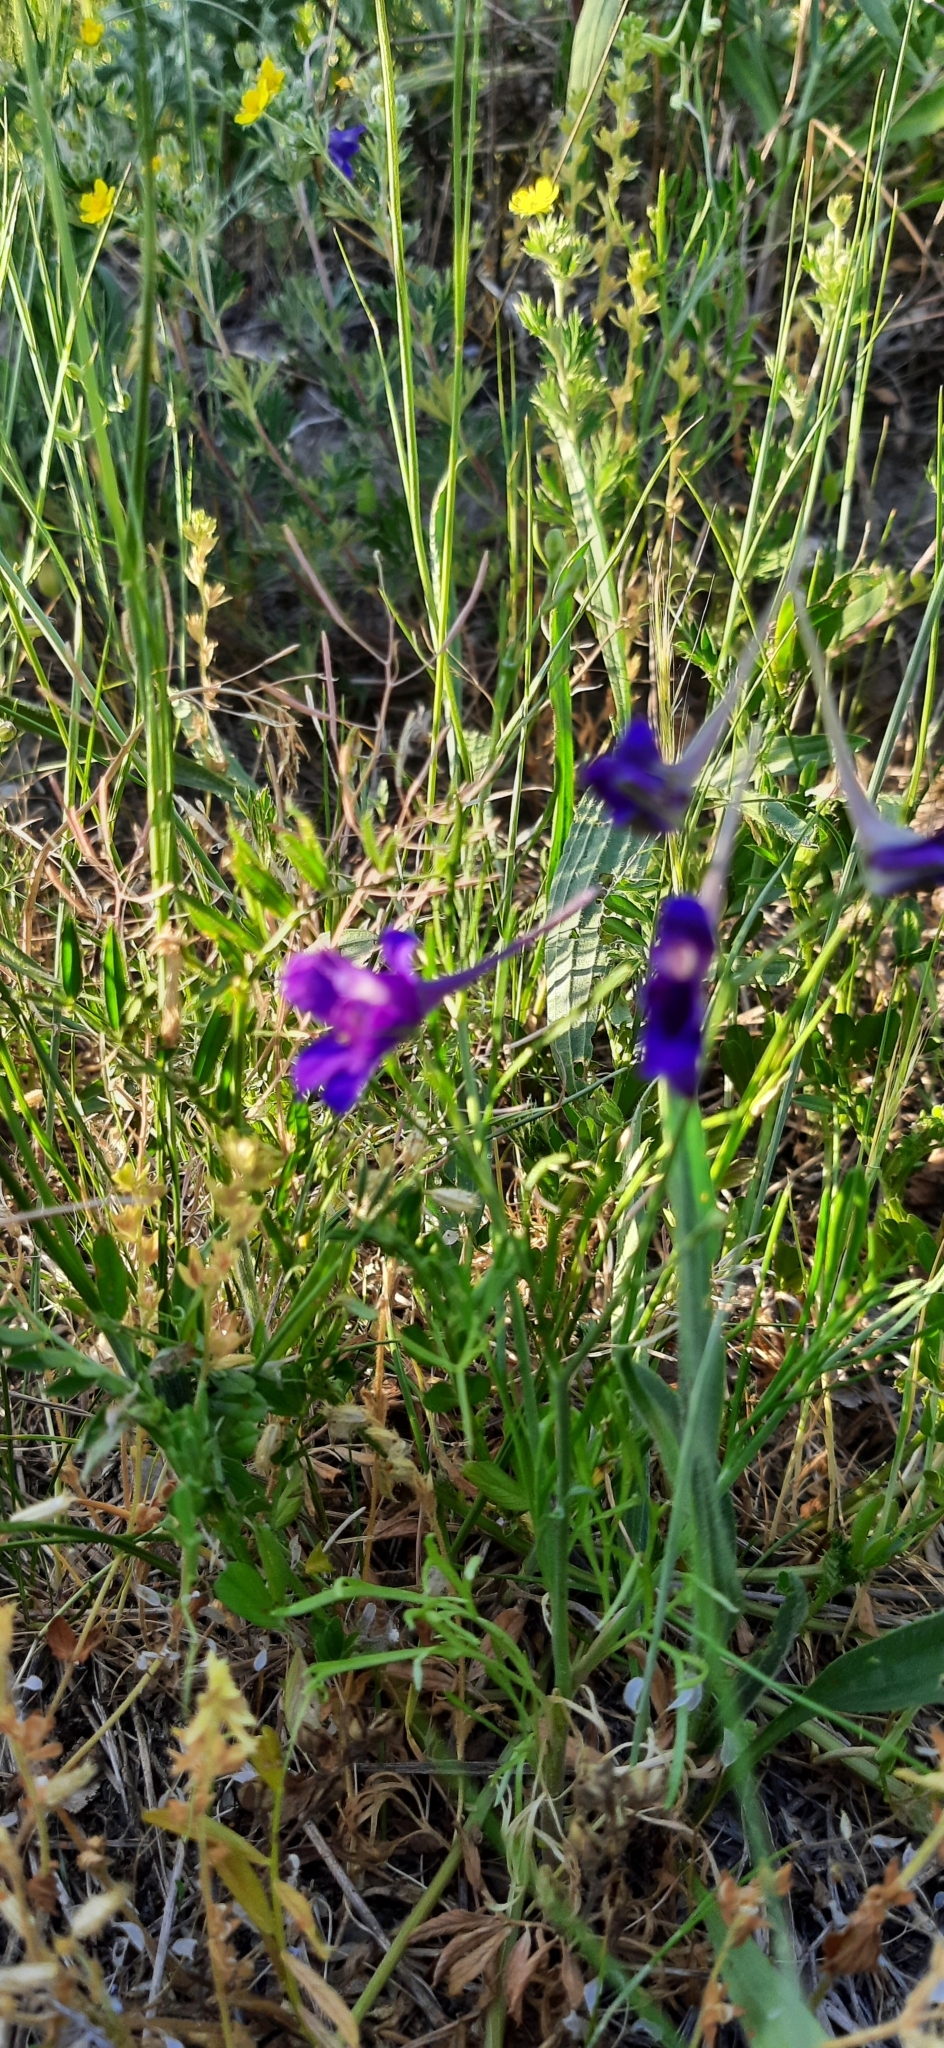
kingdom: Plantae
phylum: Tracheophyta
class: Magnoliopsida
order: Ranunculales
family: Ranunculaceae
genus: Delphinium
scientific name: Delphinium consolida
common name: Branching larkspur
